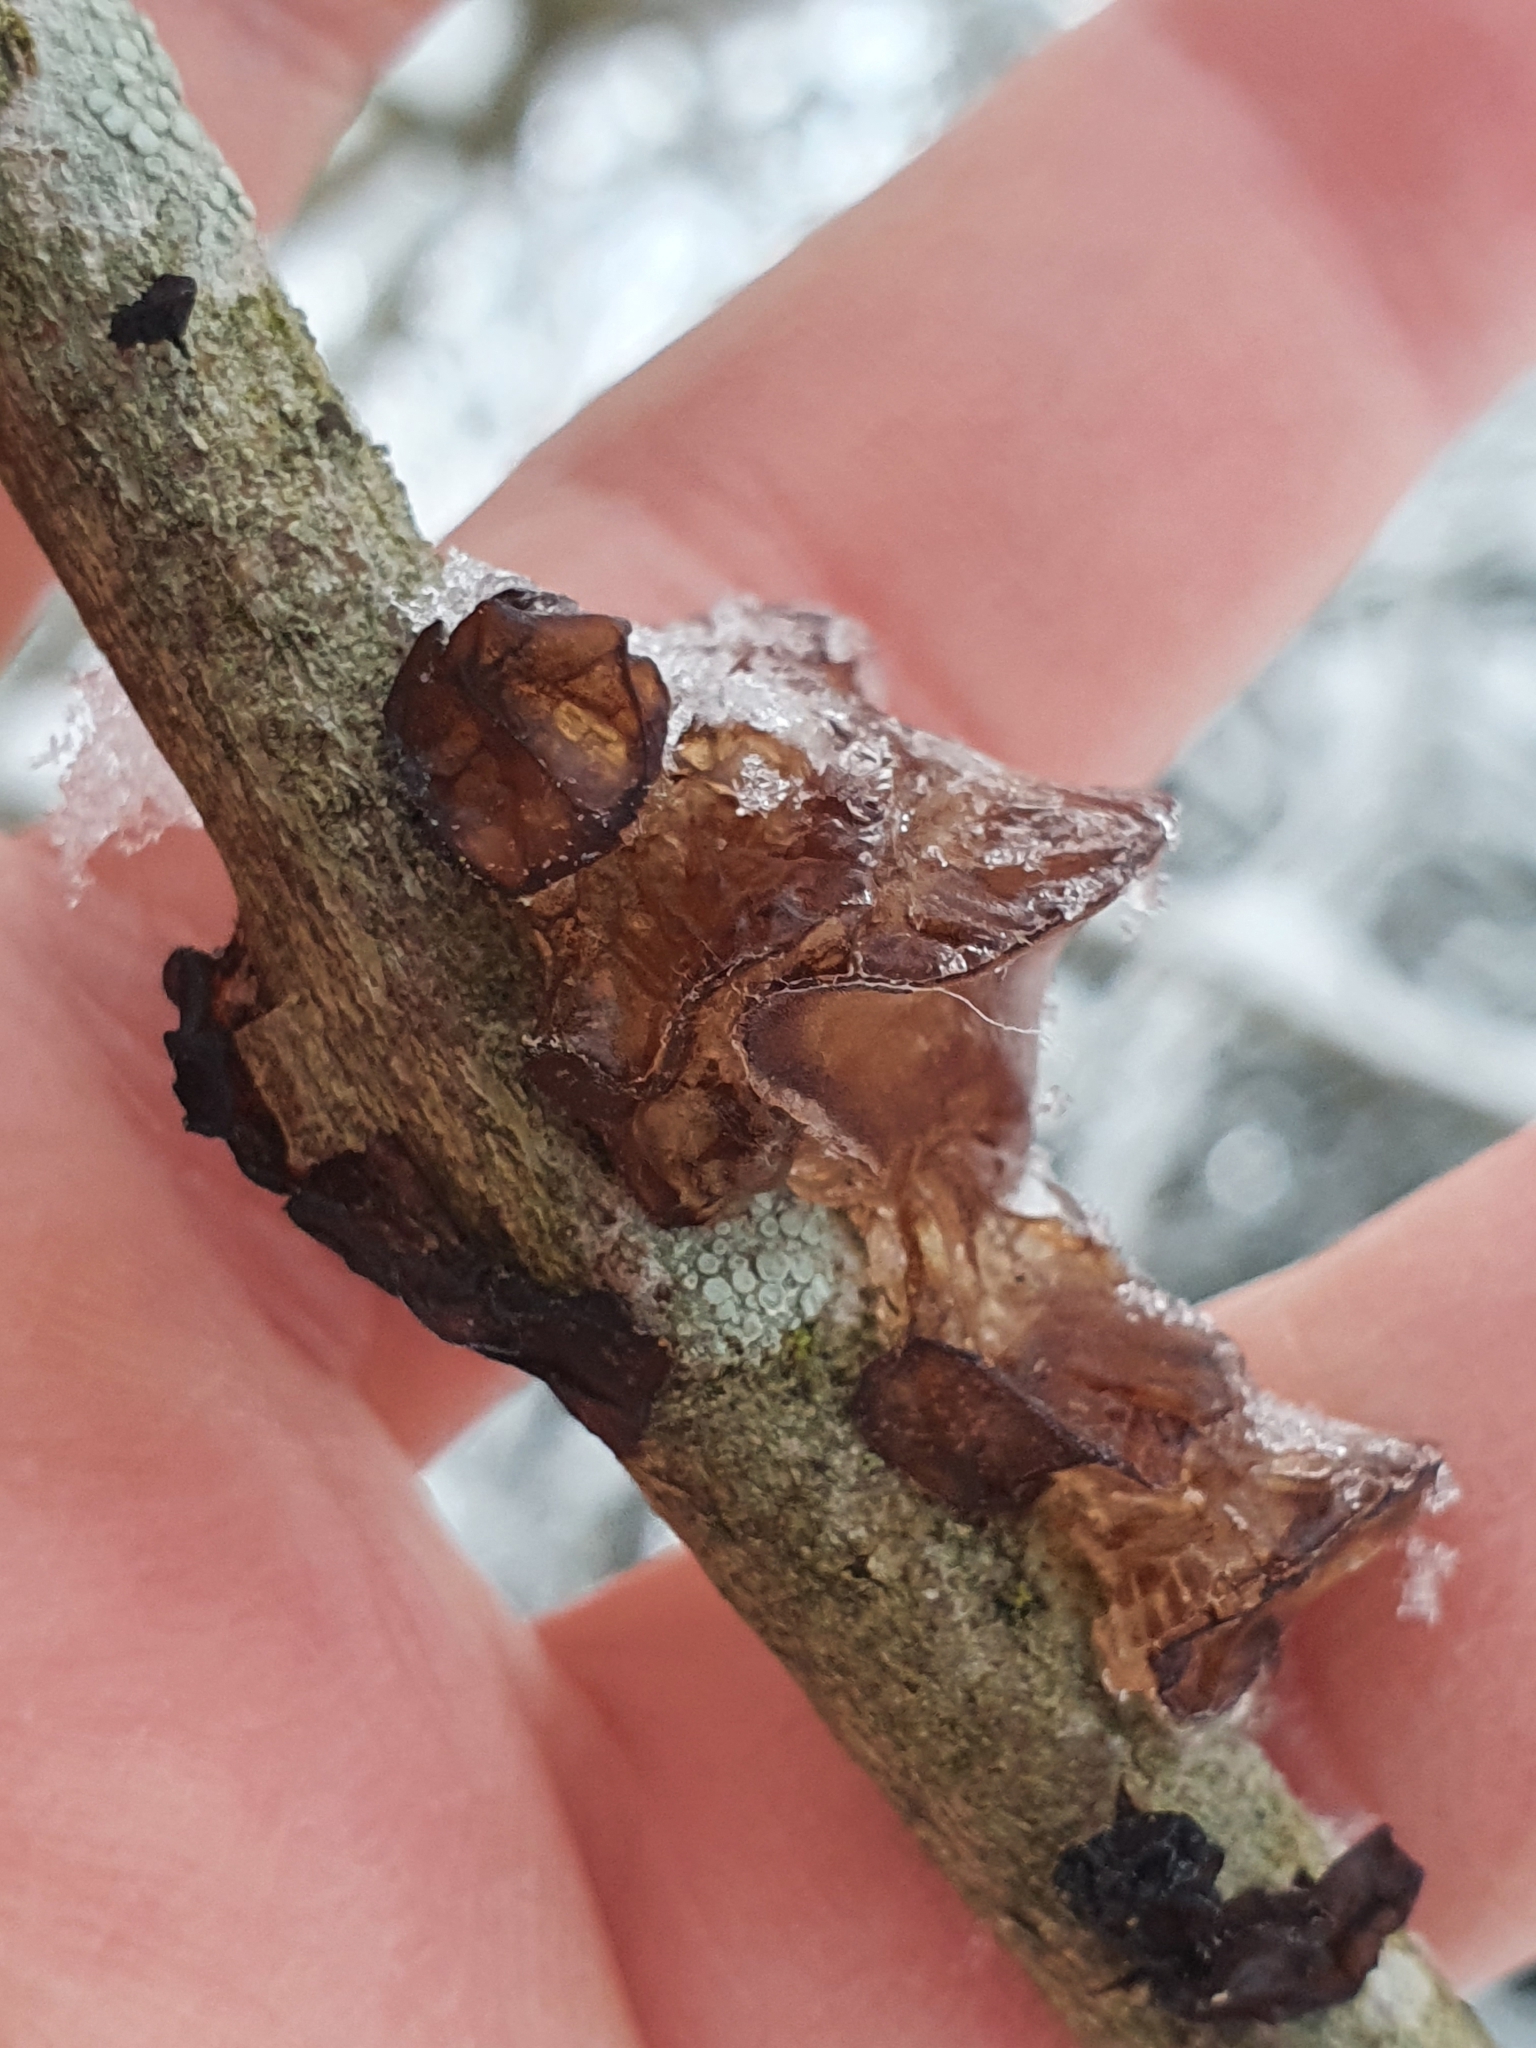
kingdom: Fungi
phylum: Basidiomycota
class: Agaricomycetes
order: Auriculariales
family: Auriculariaceae
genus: Exidia
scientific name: Exidia recisa
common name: Amber jelly
